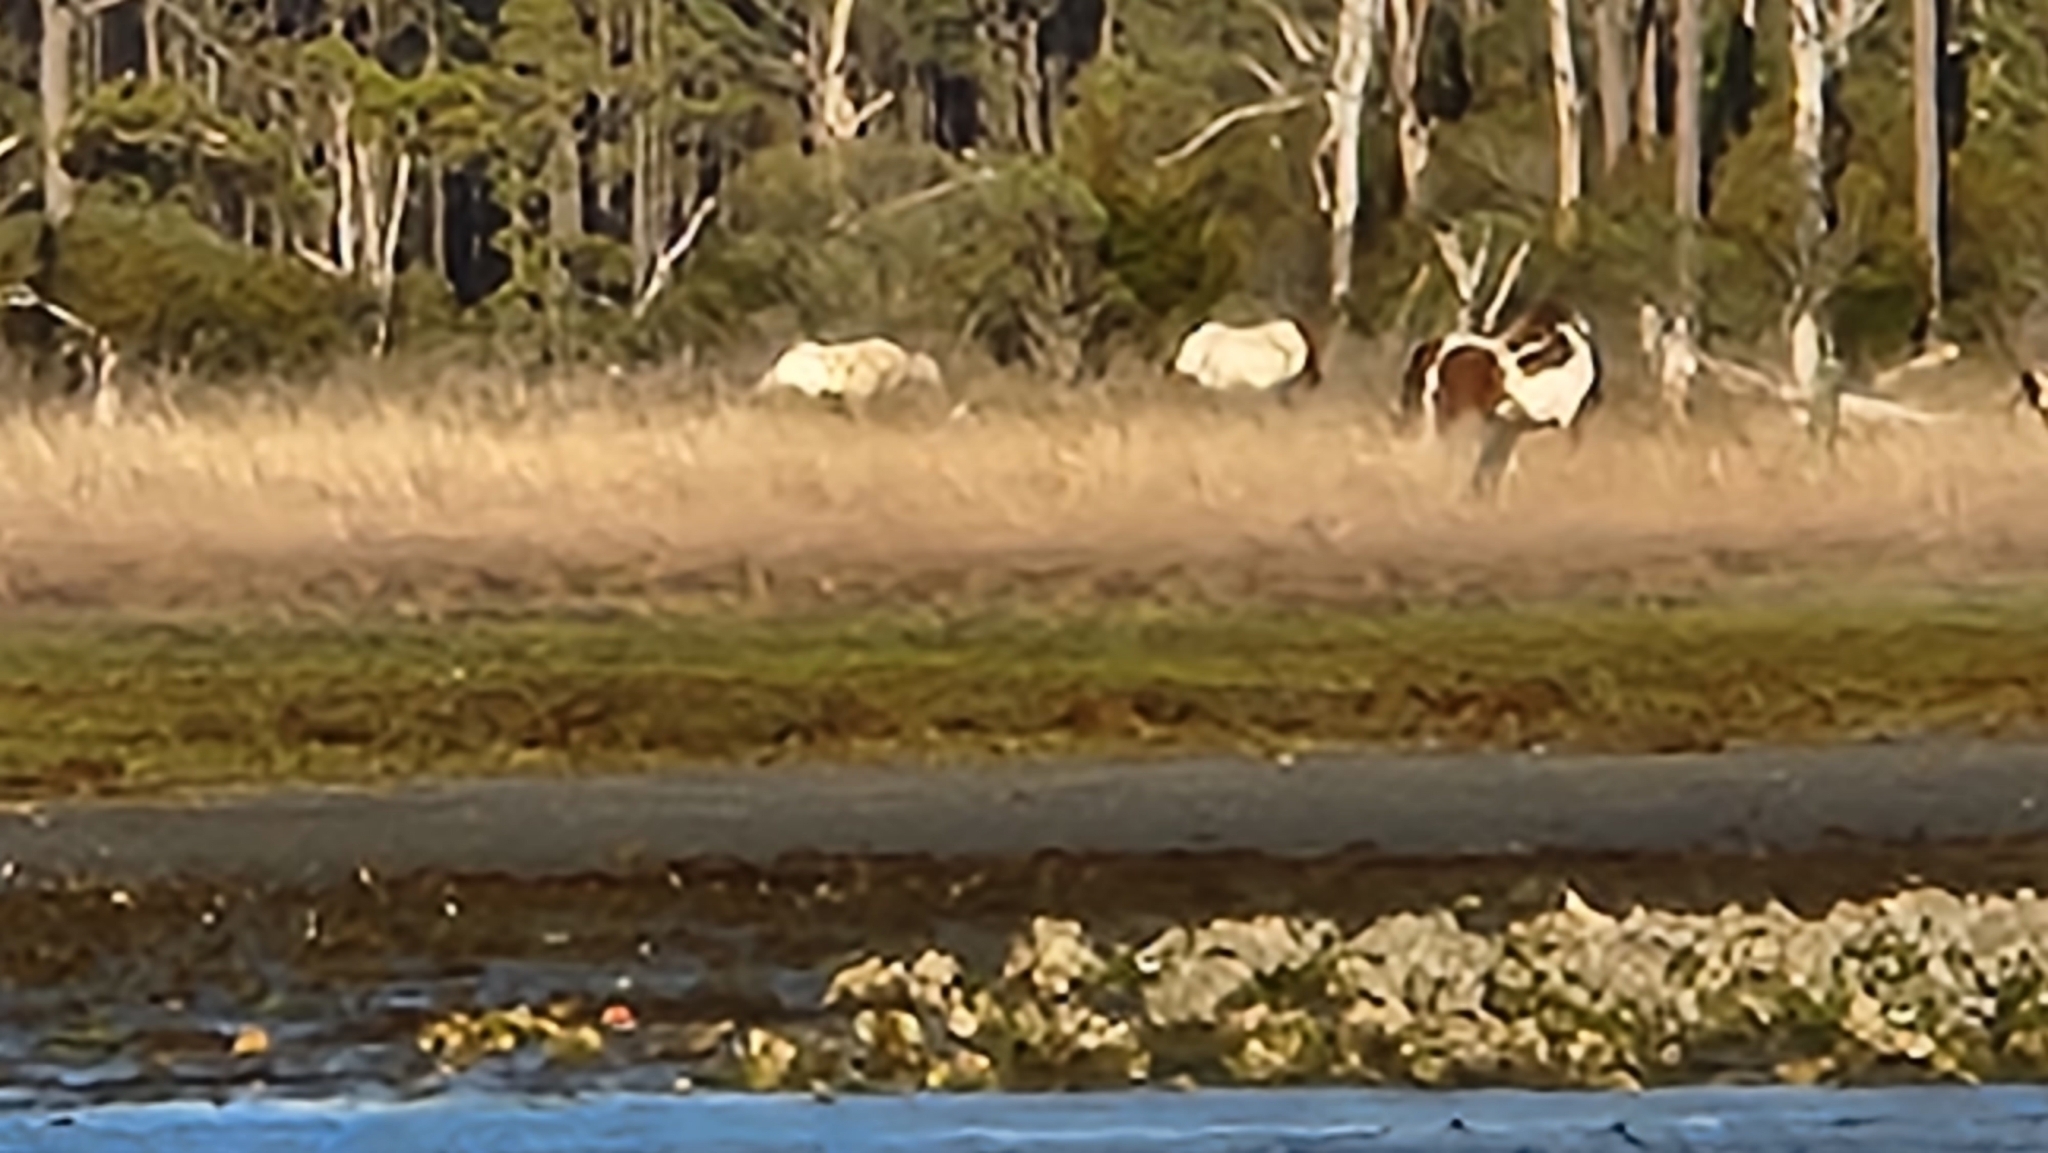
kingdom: Animalia
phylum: Chordata
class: Mammalia
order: Perissodactyla
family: Equidae
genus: Equus
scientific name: Equus caballus
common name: Horse
